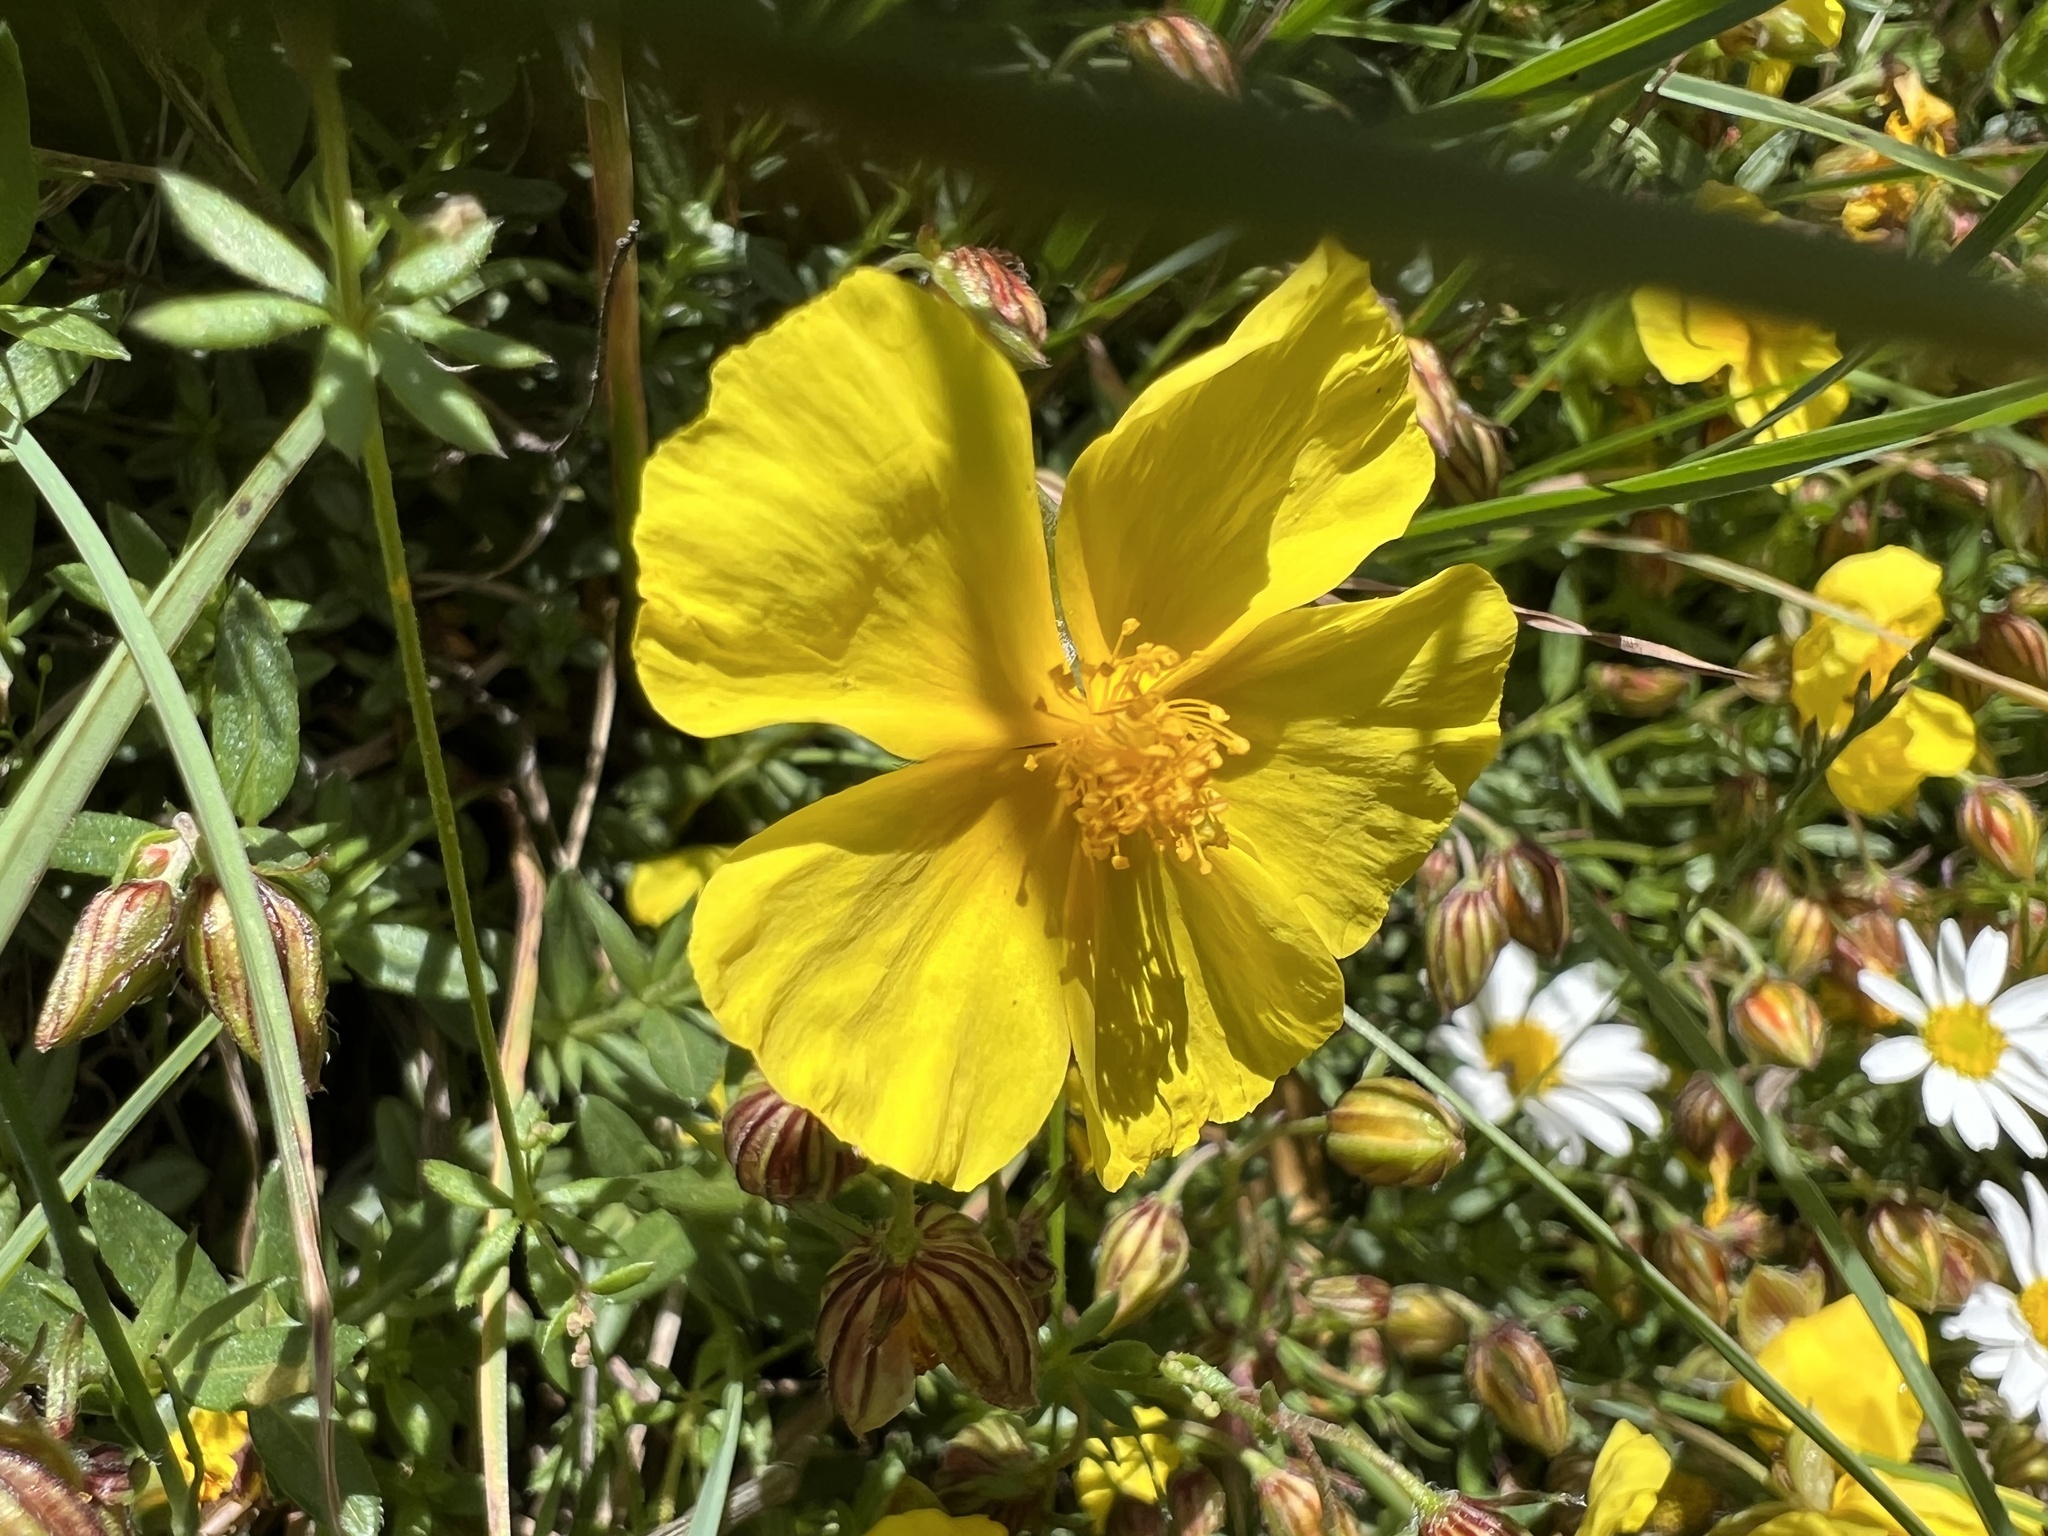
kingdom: Plantae
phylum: Tracheophyta
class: Magnoliopsida
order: Malvales
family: Cistaceae
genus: Helianthemum
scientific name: Helianthemum croceum
